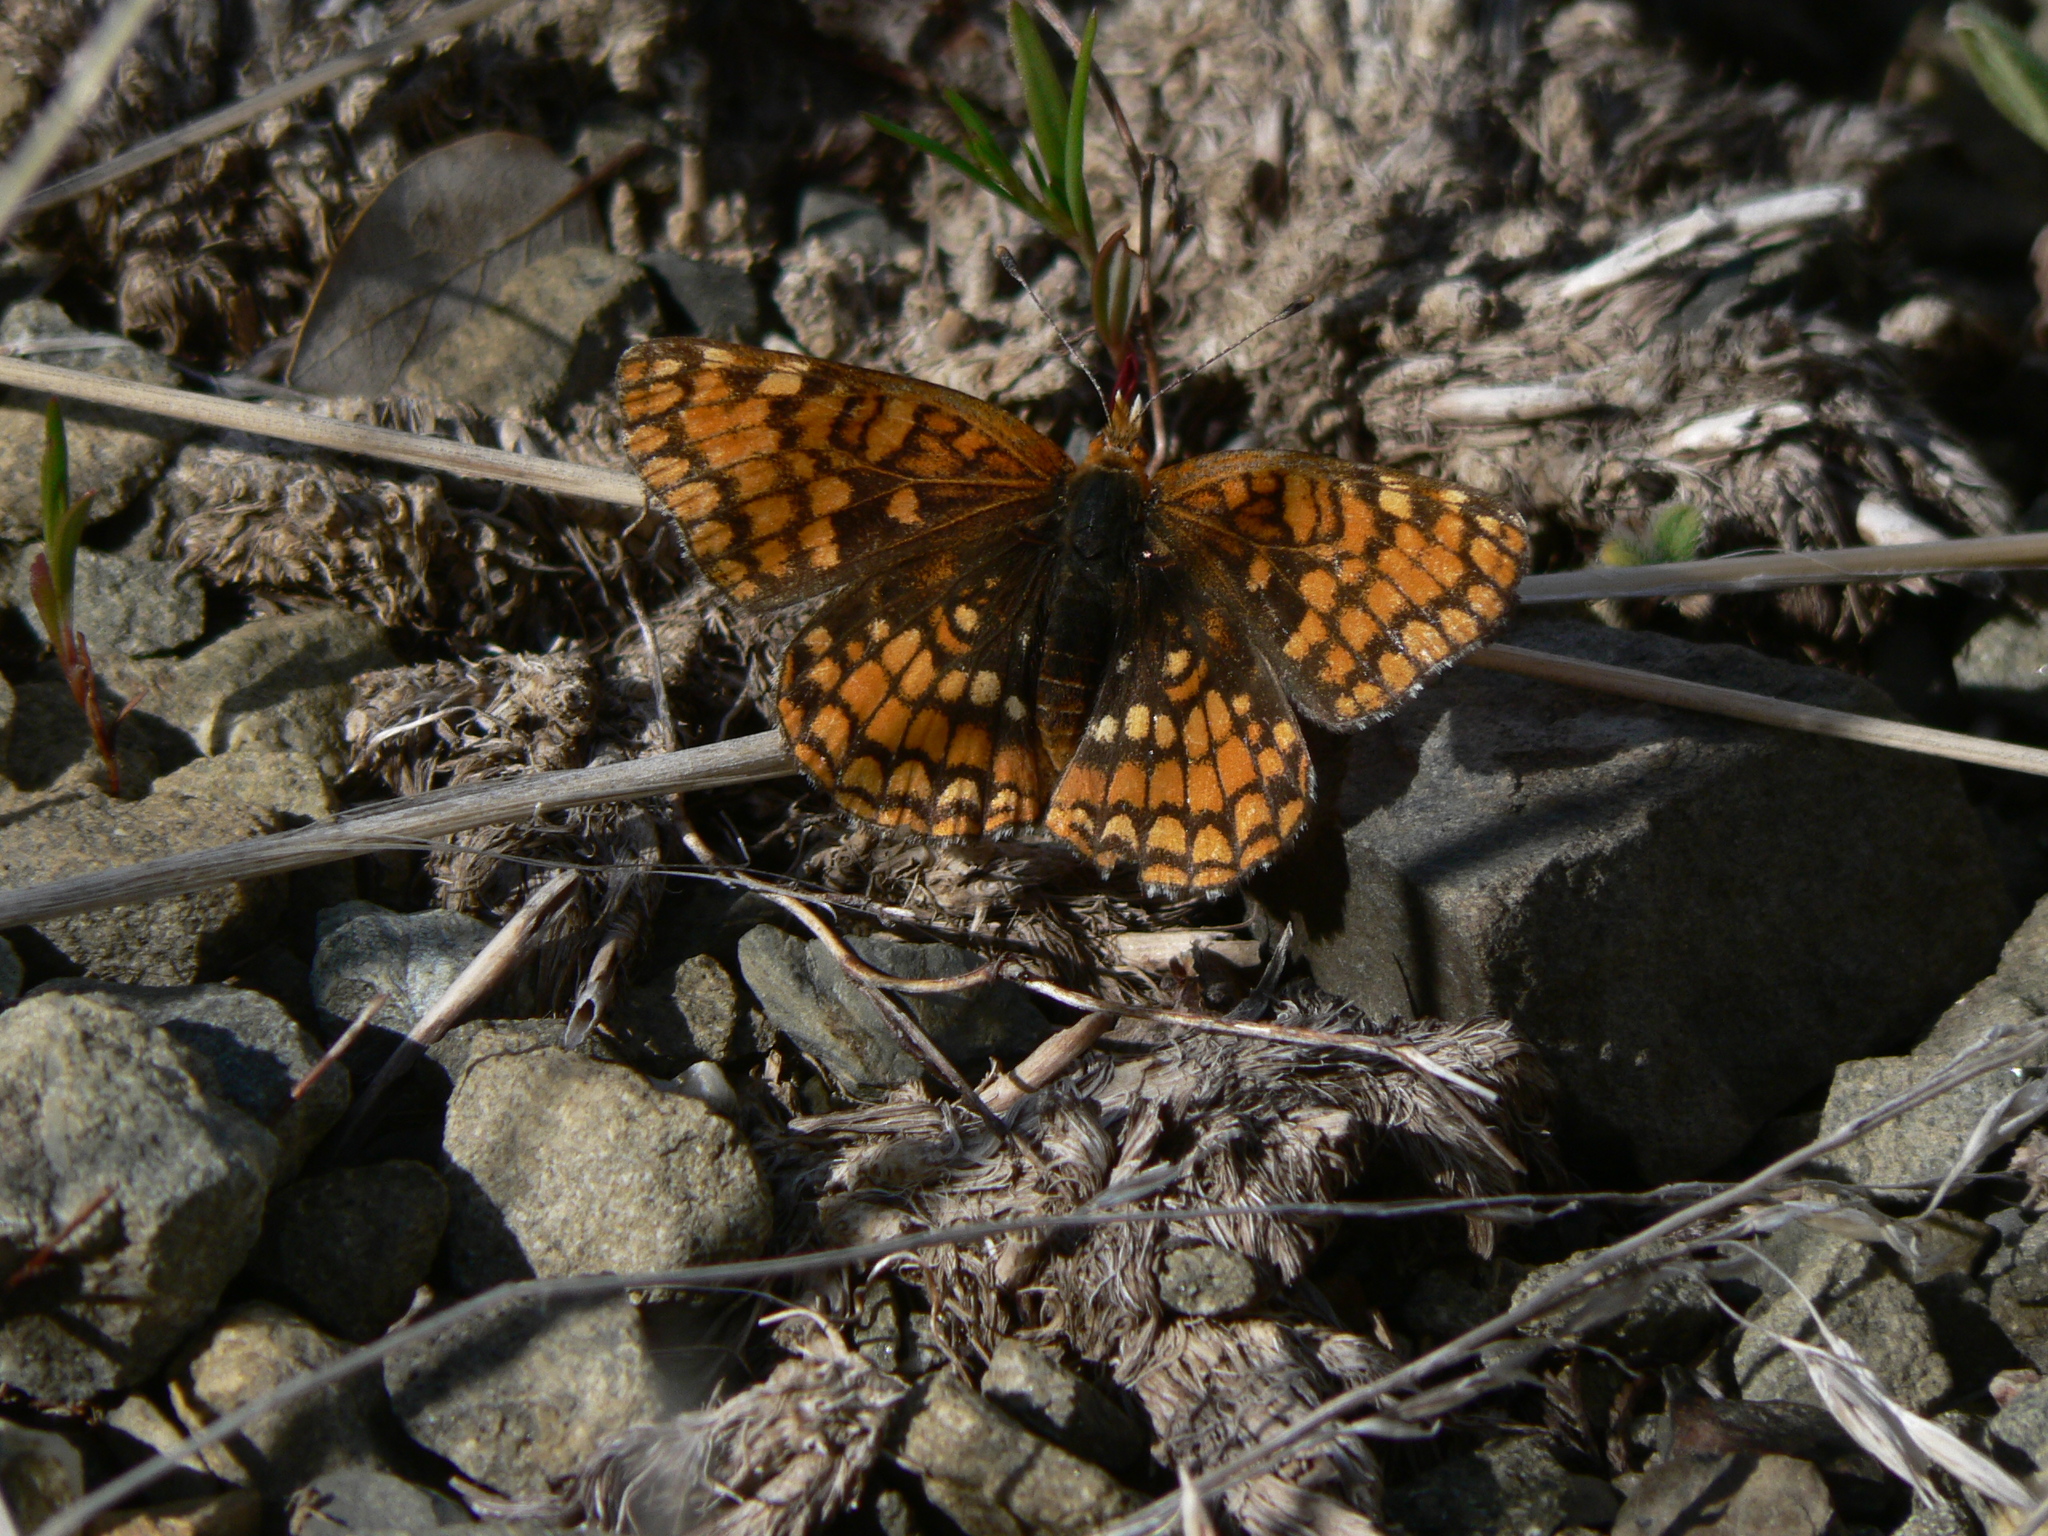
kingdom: Animalia
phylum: Arthropoda
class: Insecta
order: Lepidoptera
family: Nymphalidae
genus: Chlosyne
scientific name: Chlosyne palla
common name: Northern checkerspot
